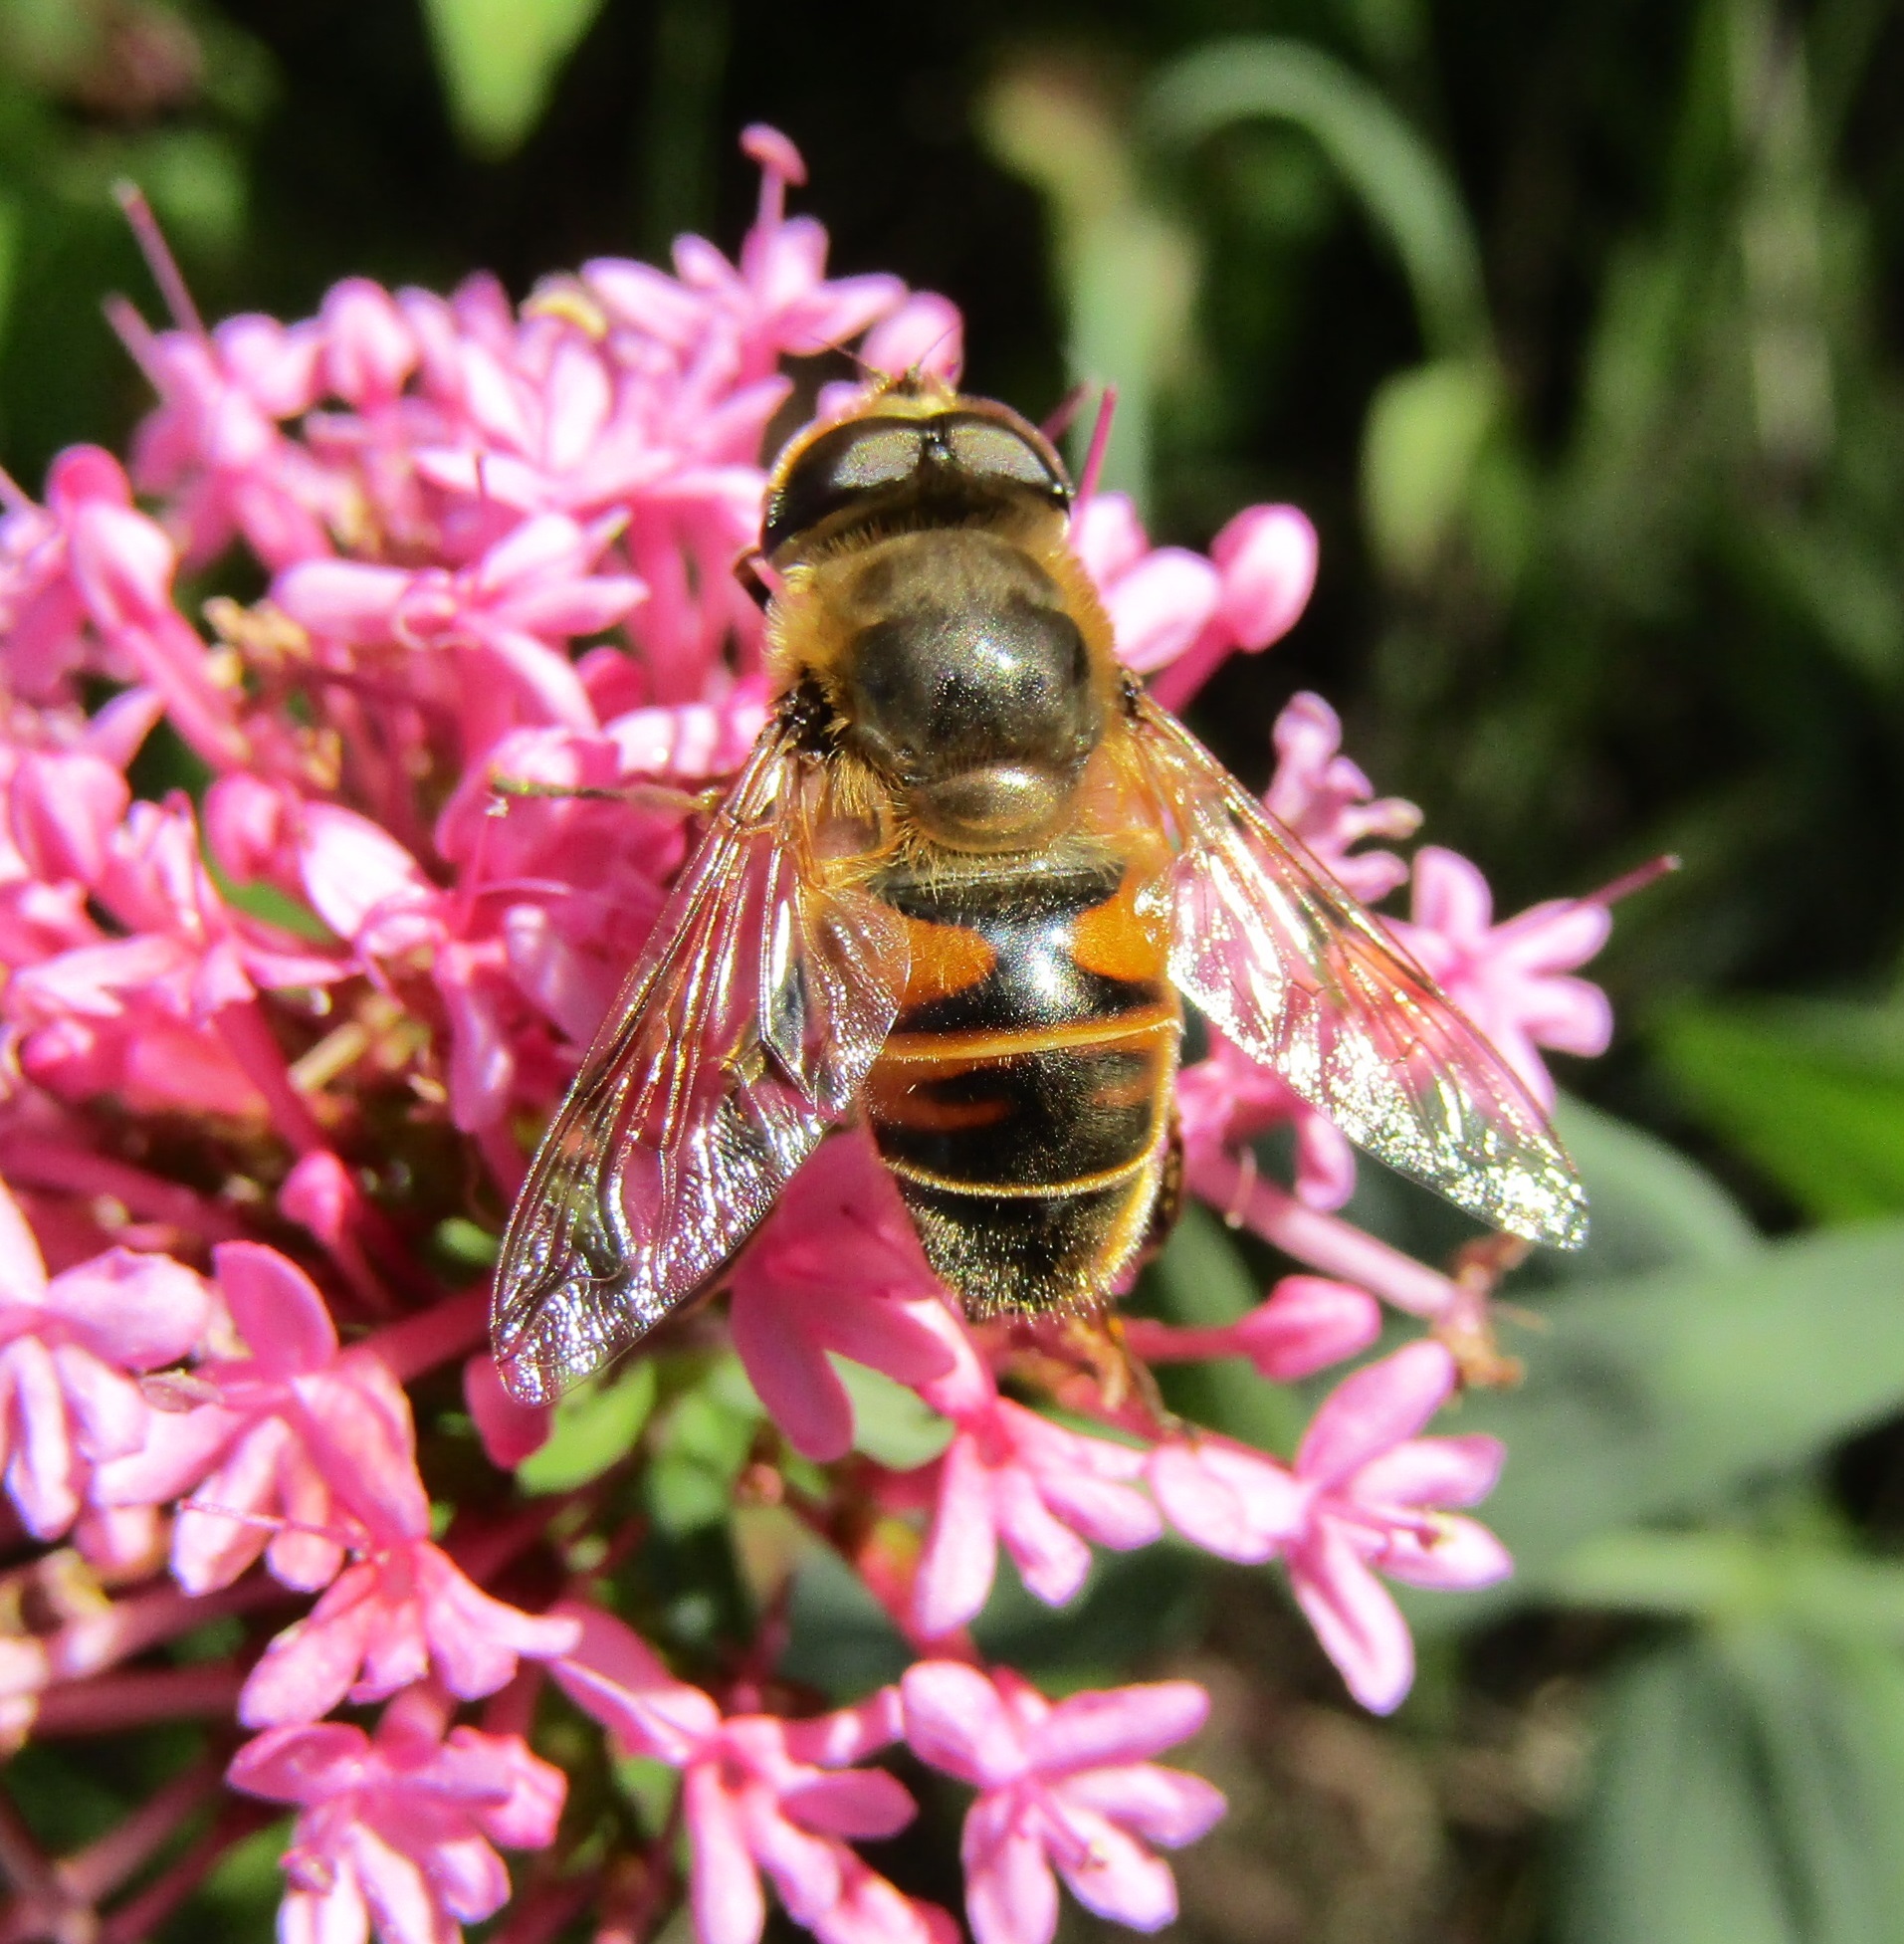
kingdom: Animalia
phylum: Arthropoda
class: Insecta
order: Diptera
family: Syrphidae
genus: Eristalis
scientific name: Eristalis tenax
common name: Drone fly
